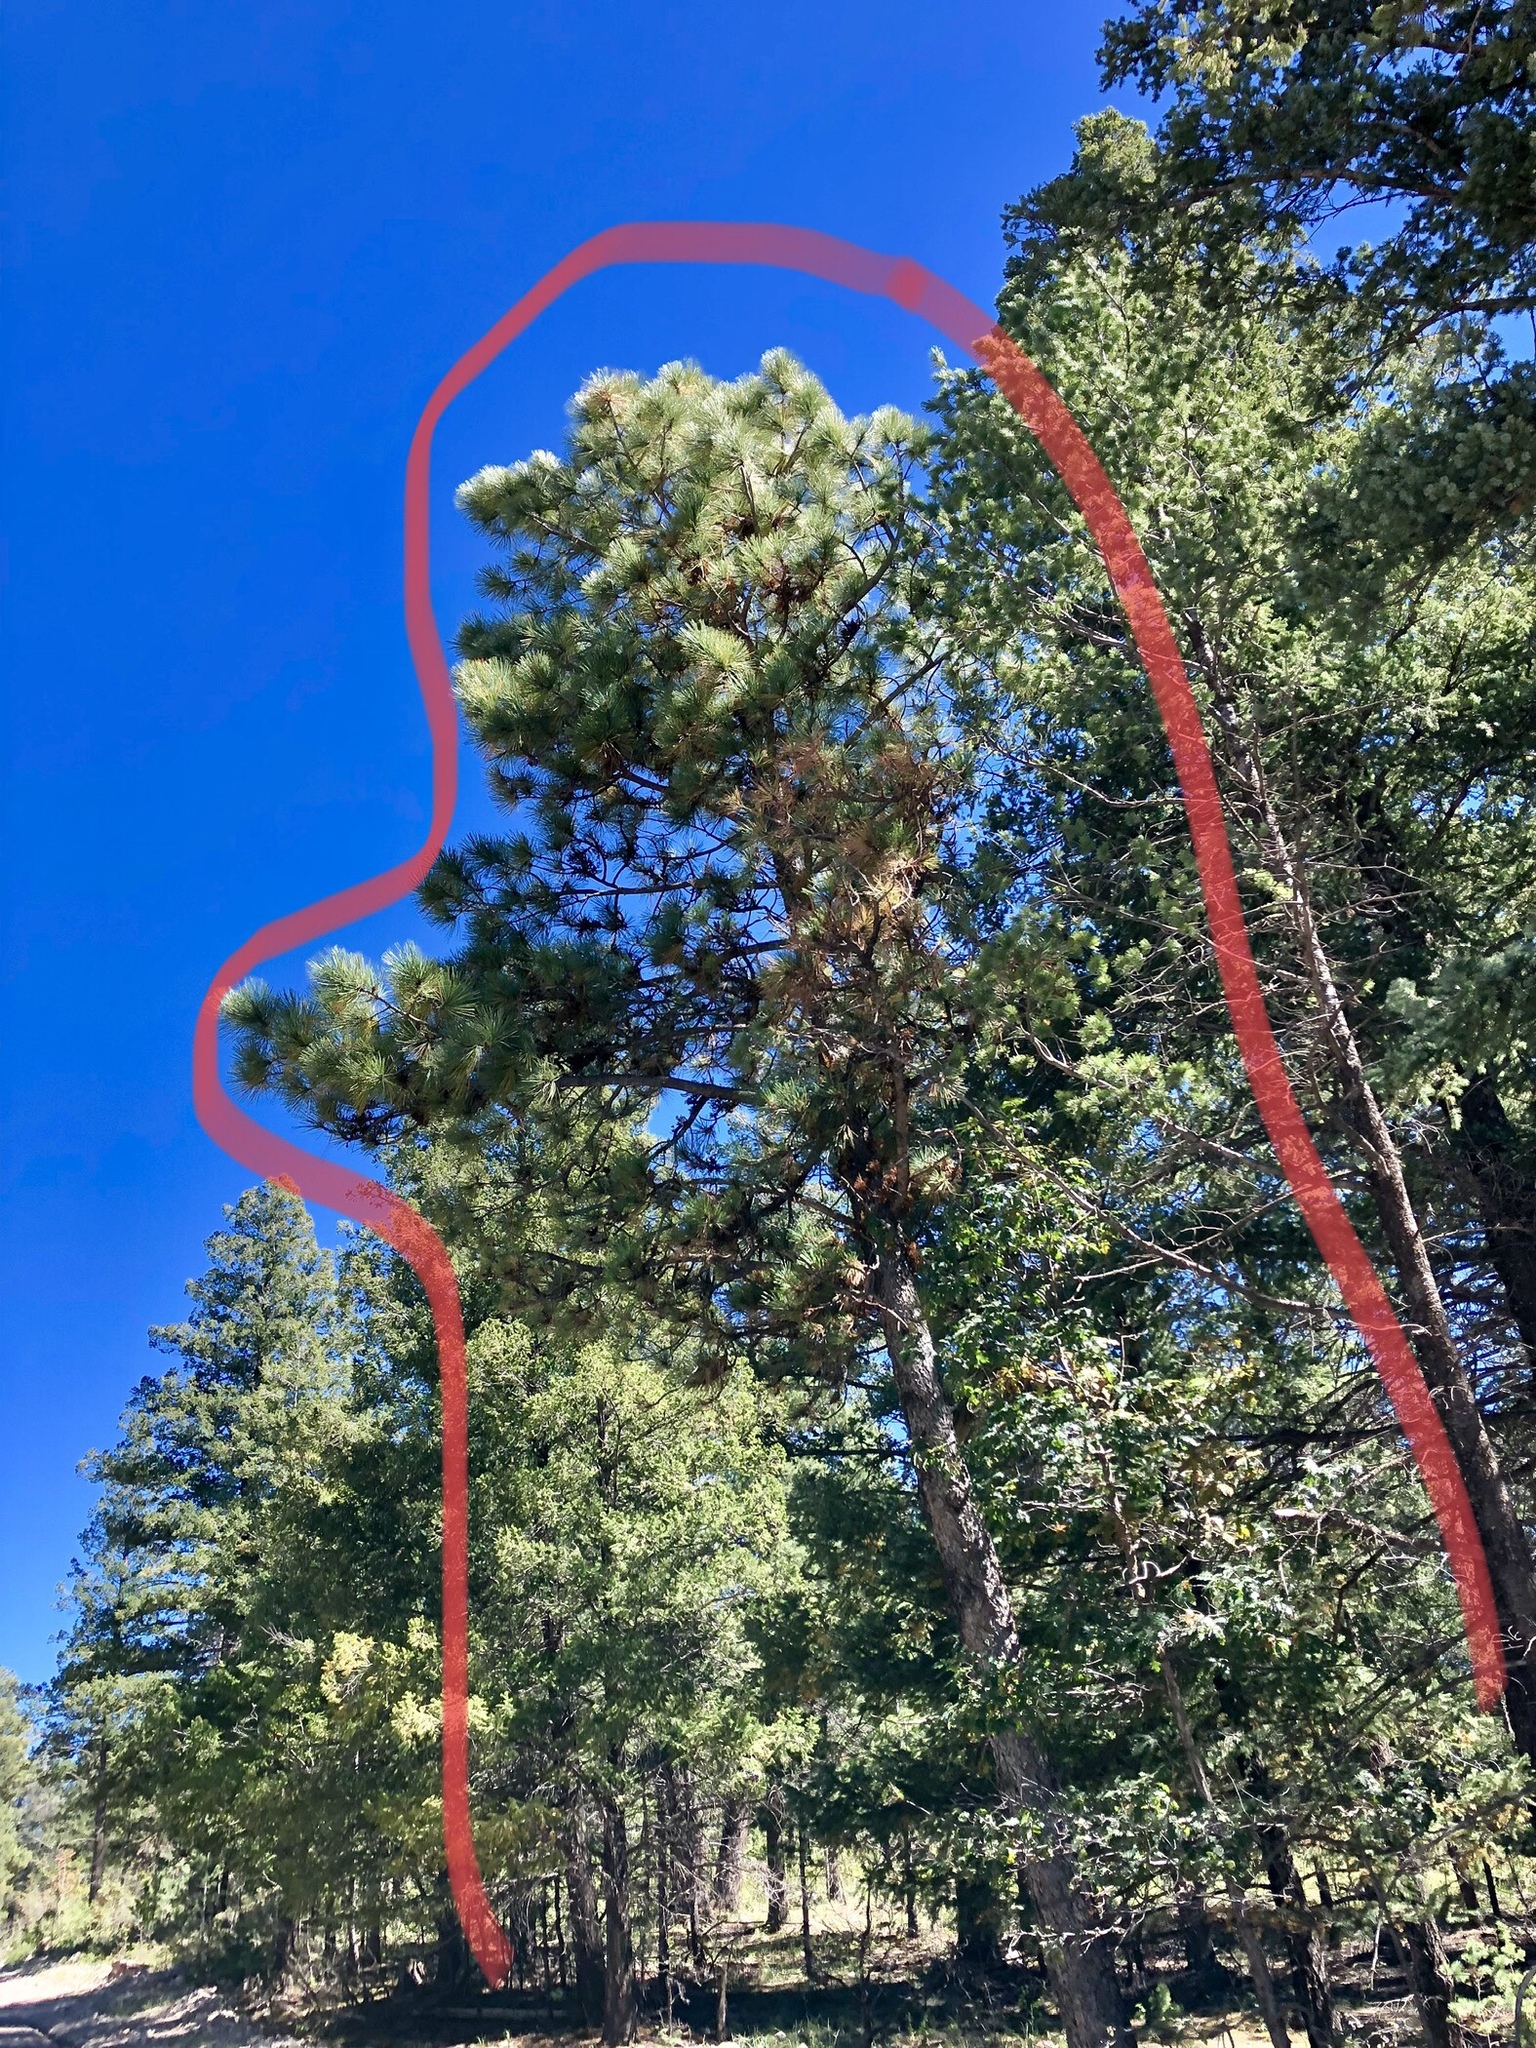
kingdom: Plantae
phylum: Tracheophyta
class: Pinopsida
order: Pinales
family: Pinaceae
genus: Pinus
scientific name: Pinus ponderosa
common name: Western yellow-pine
